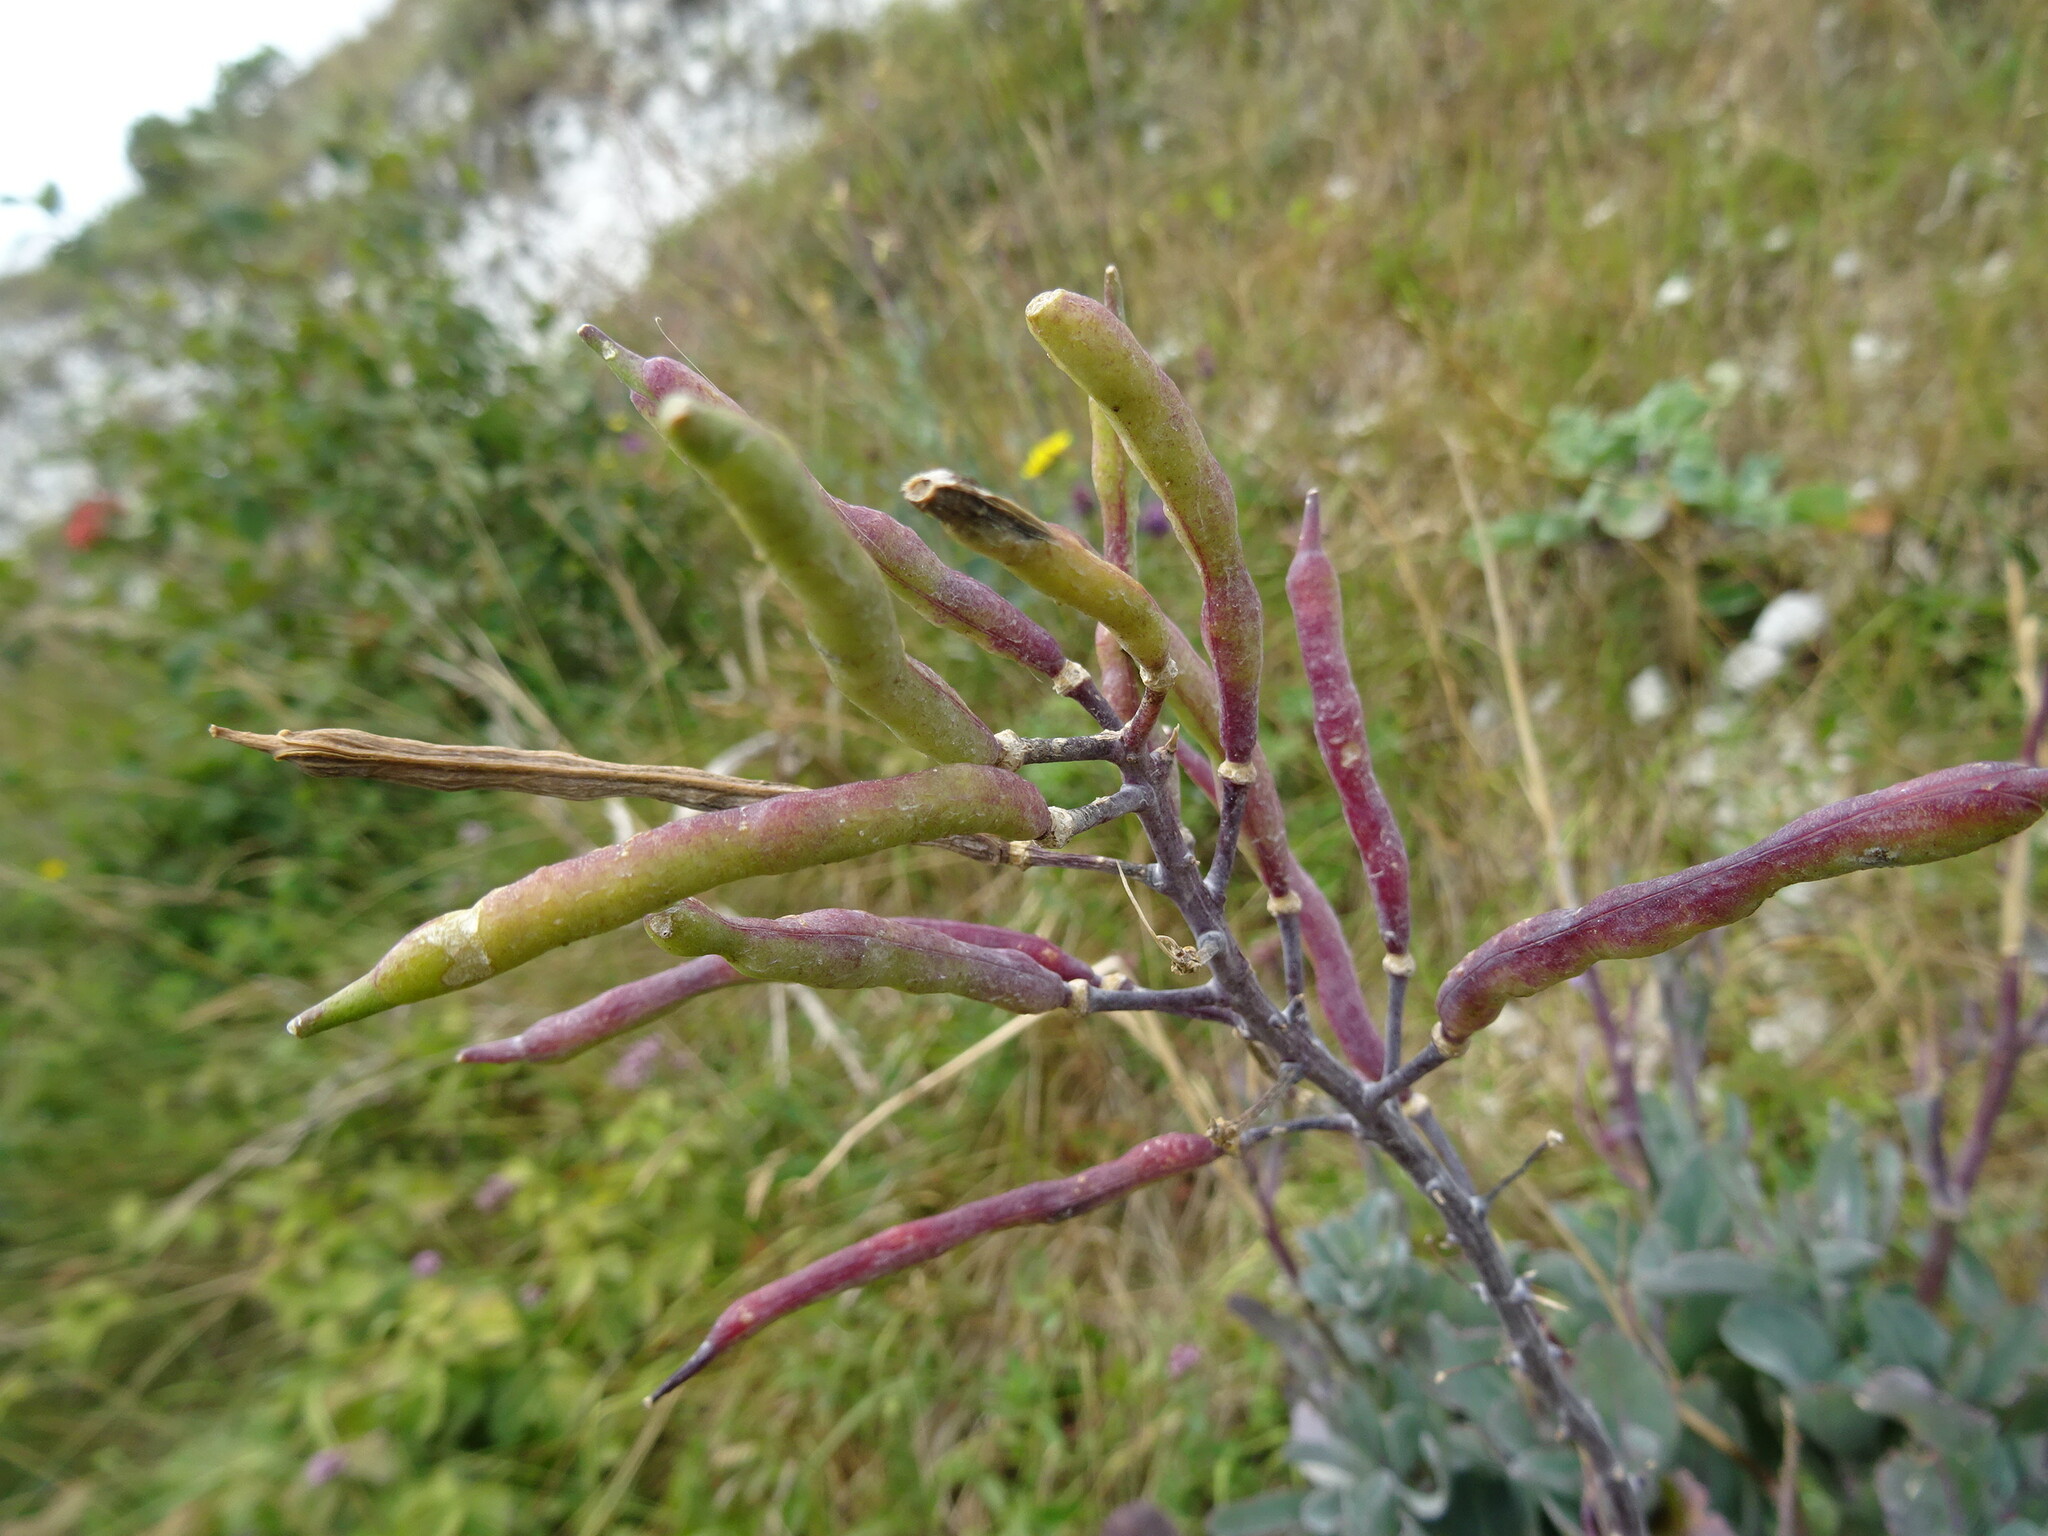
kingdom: Plantae
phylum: Tracheophyta
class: Magnoliopsida
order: Brassicales
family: Brassicaceae
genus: Brassica
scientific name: Brassica oleracea
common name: Cabbage
